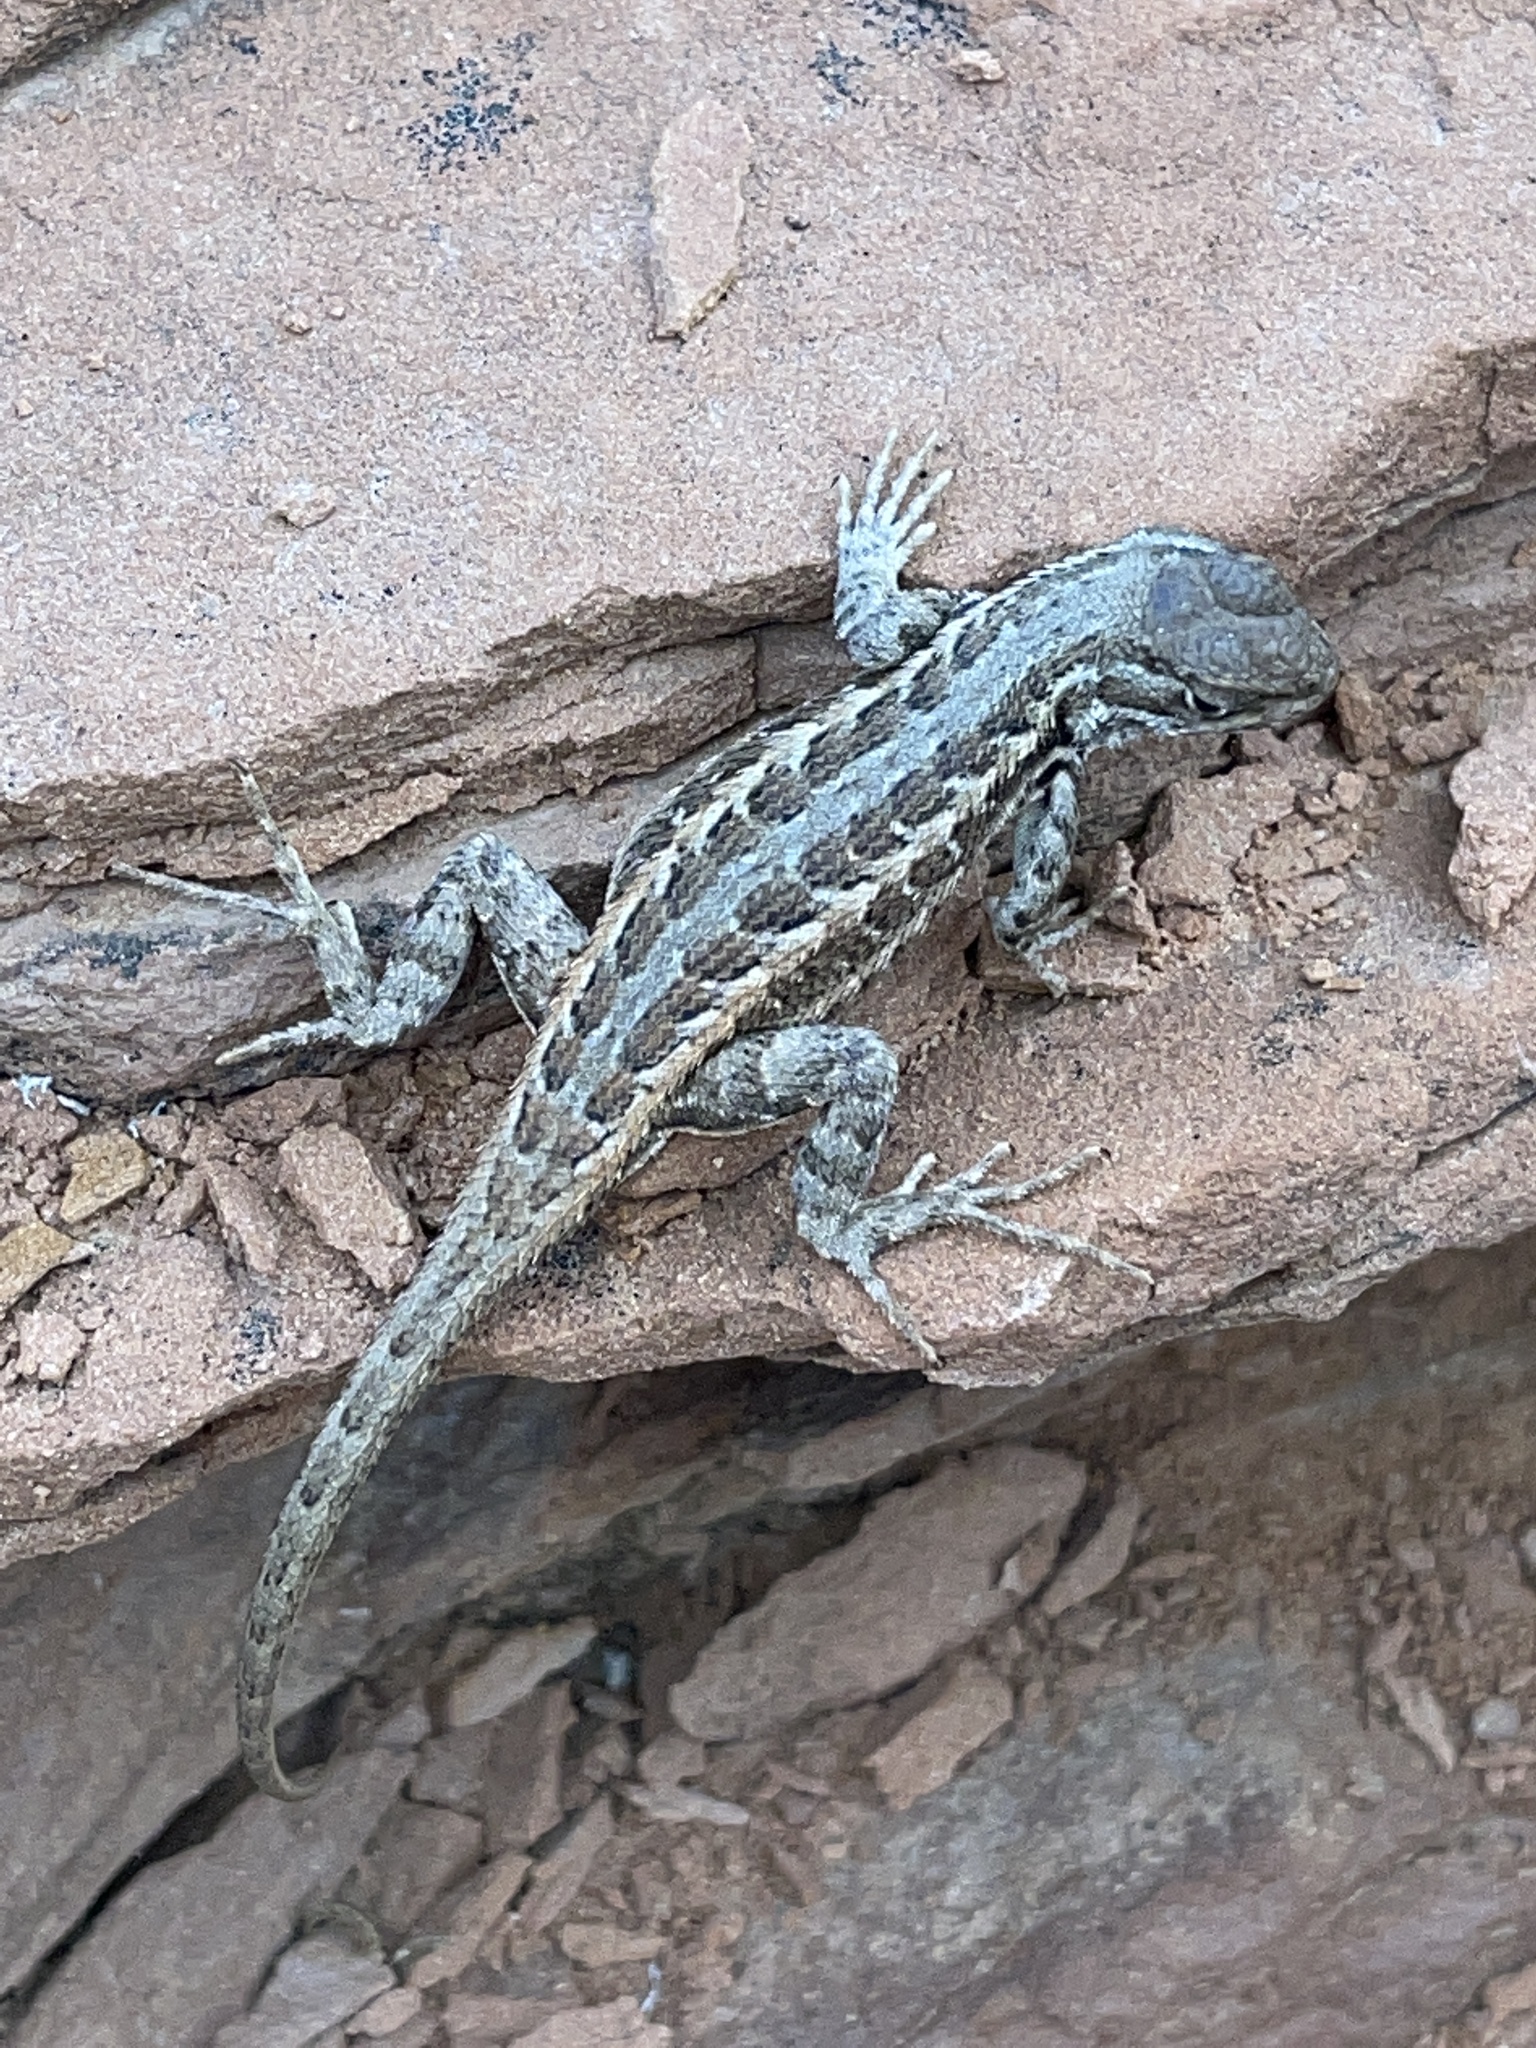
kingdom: Animalia
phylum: Chordata
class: Squamata
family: Phrynosomatidae
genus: Sceloporus
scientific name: Sceloporus graciosus
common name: Sagebrush lizard
